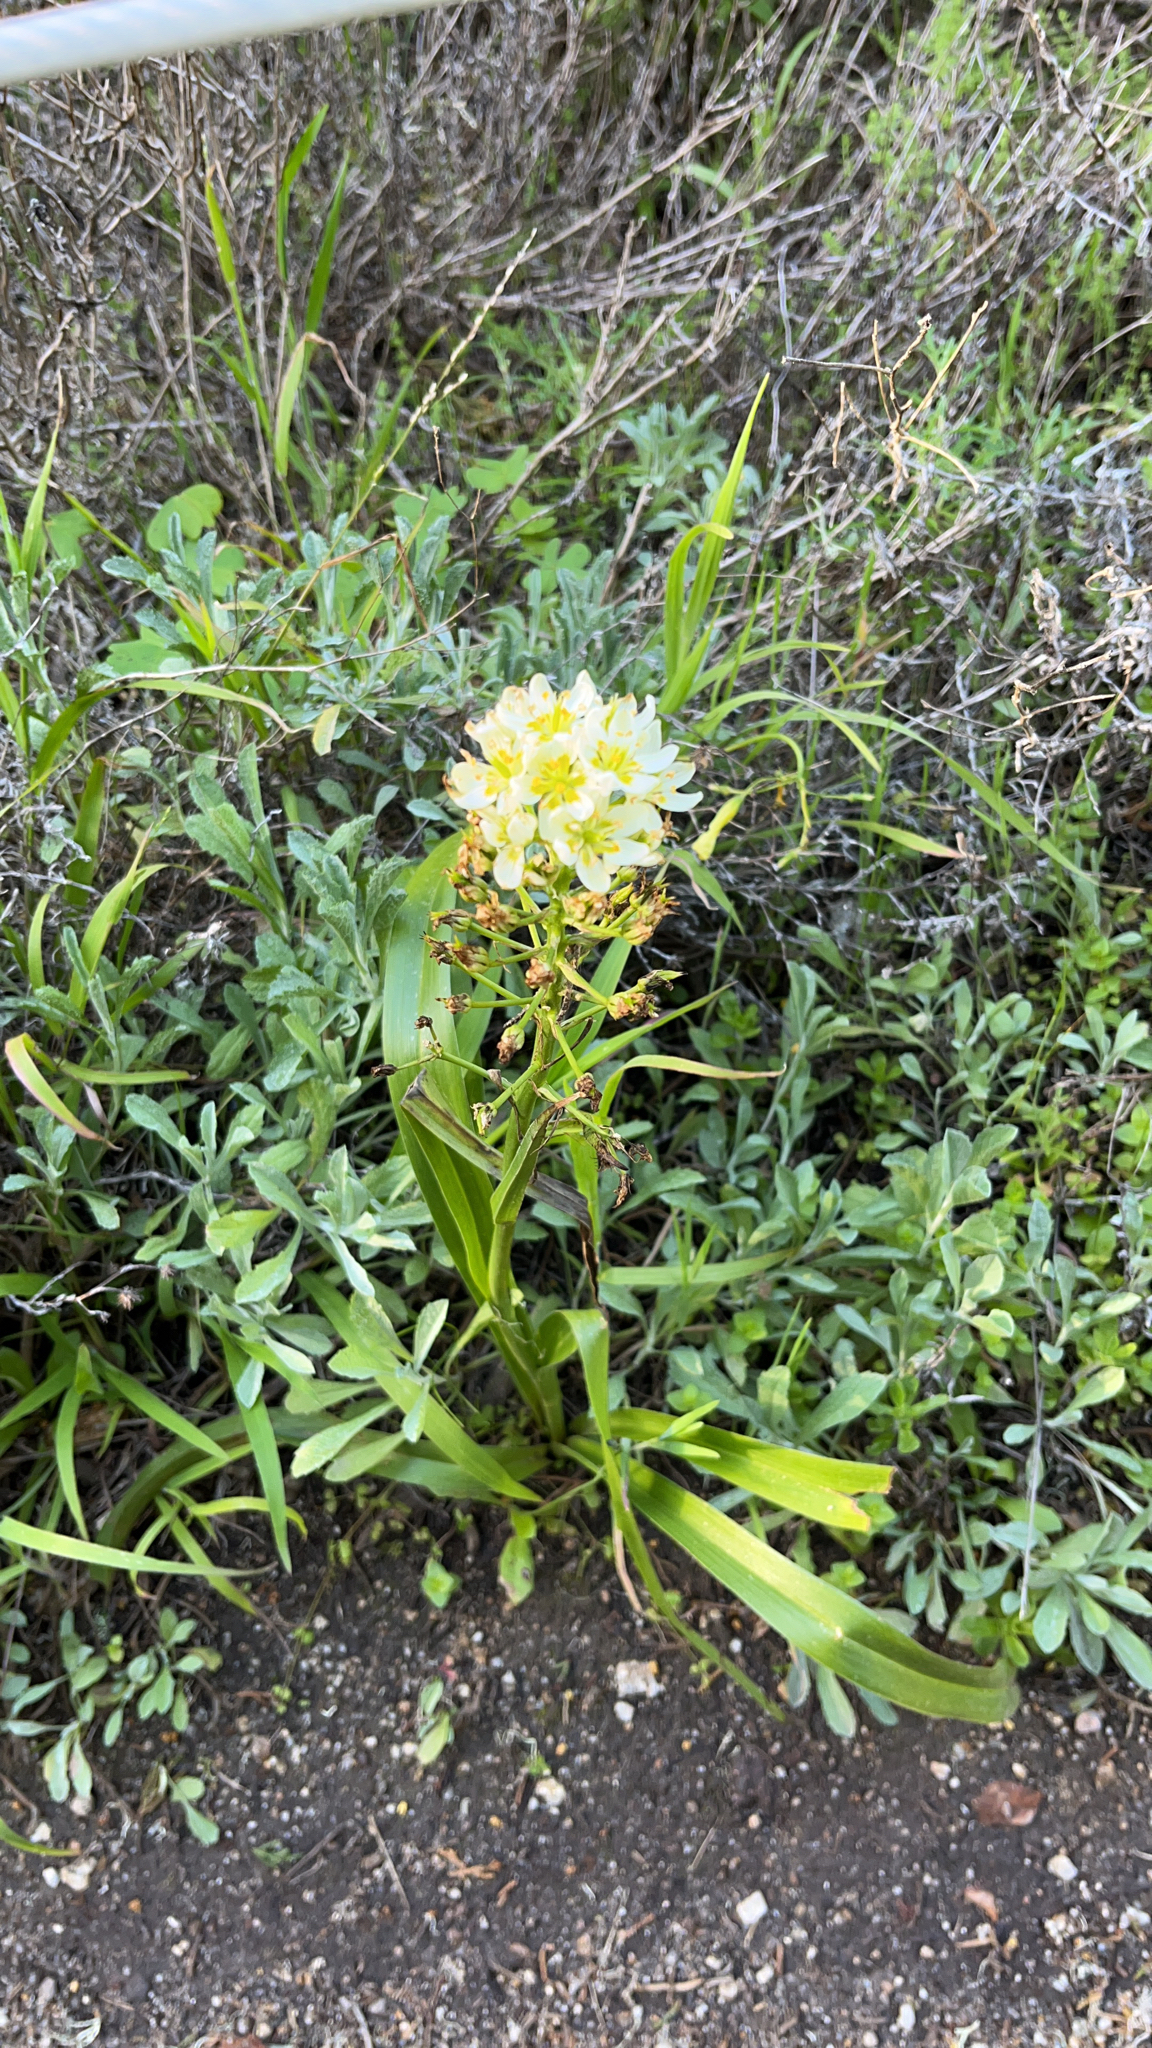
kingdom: Plantae
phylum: Tracheophyta
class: Liliopsida
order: Liliales
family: Melanthiaceae
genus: Toxicoscordion
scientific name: Toxicoscordion fremontii
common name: Fremont's death camas
